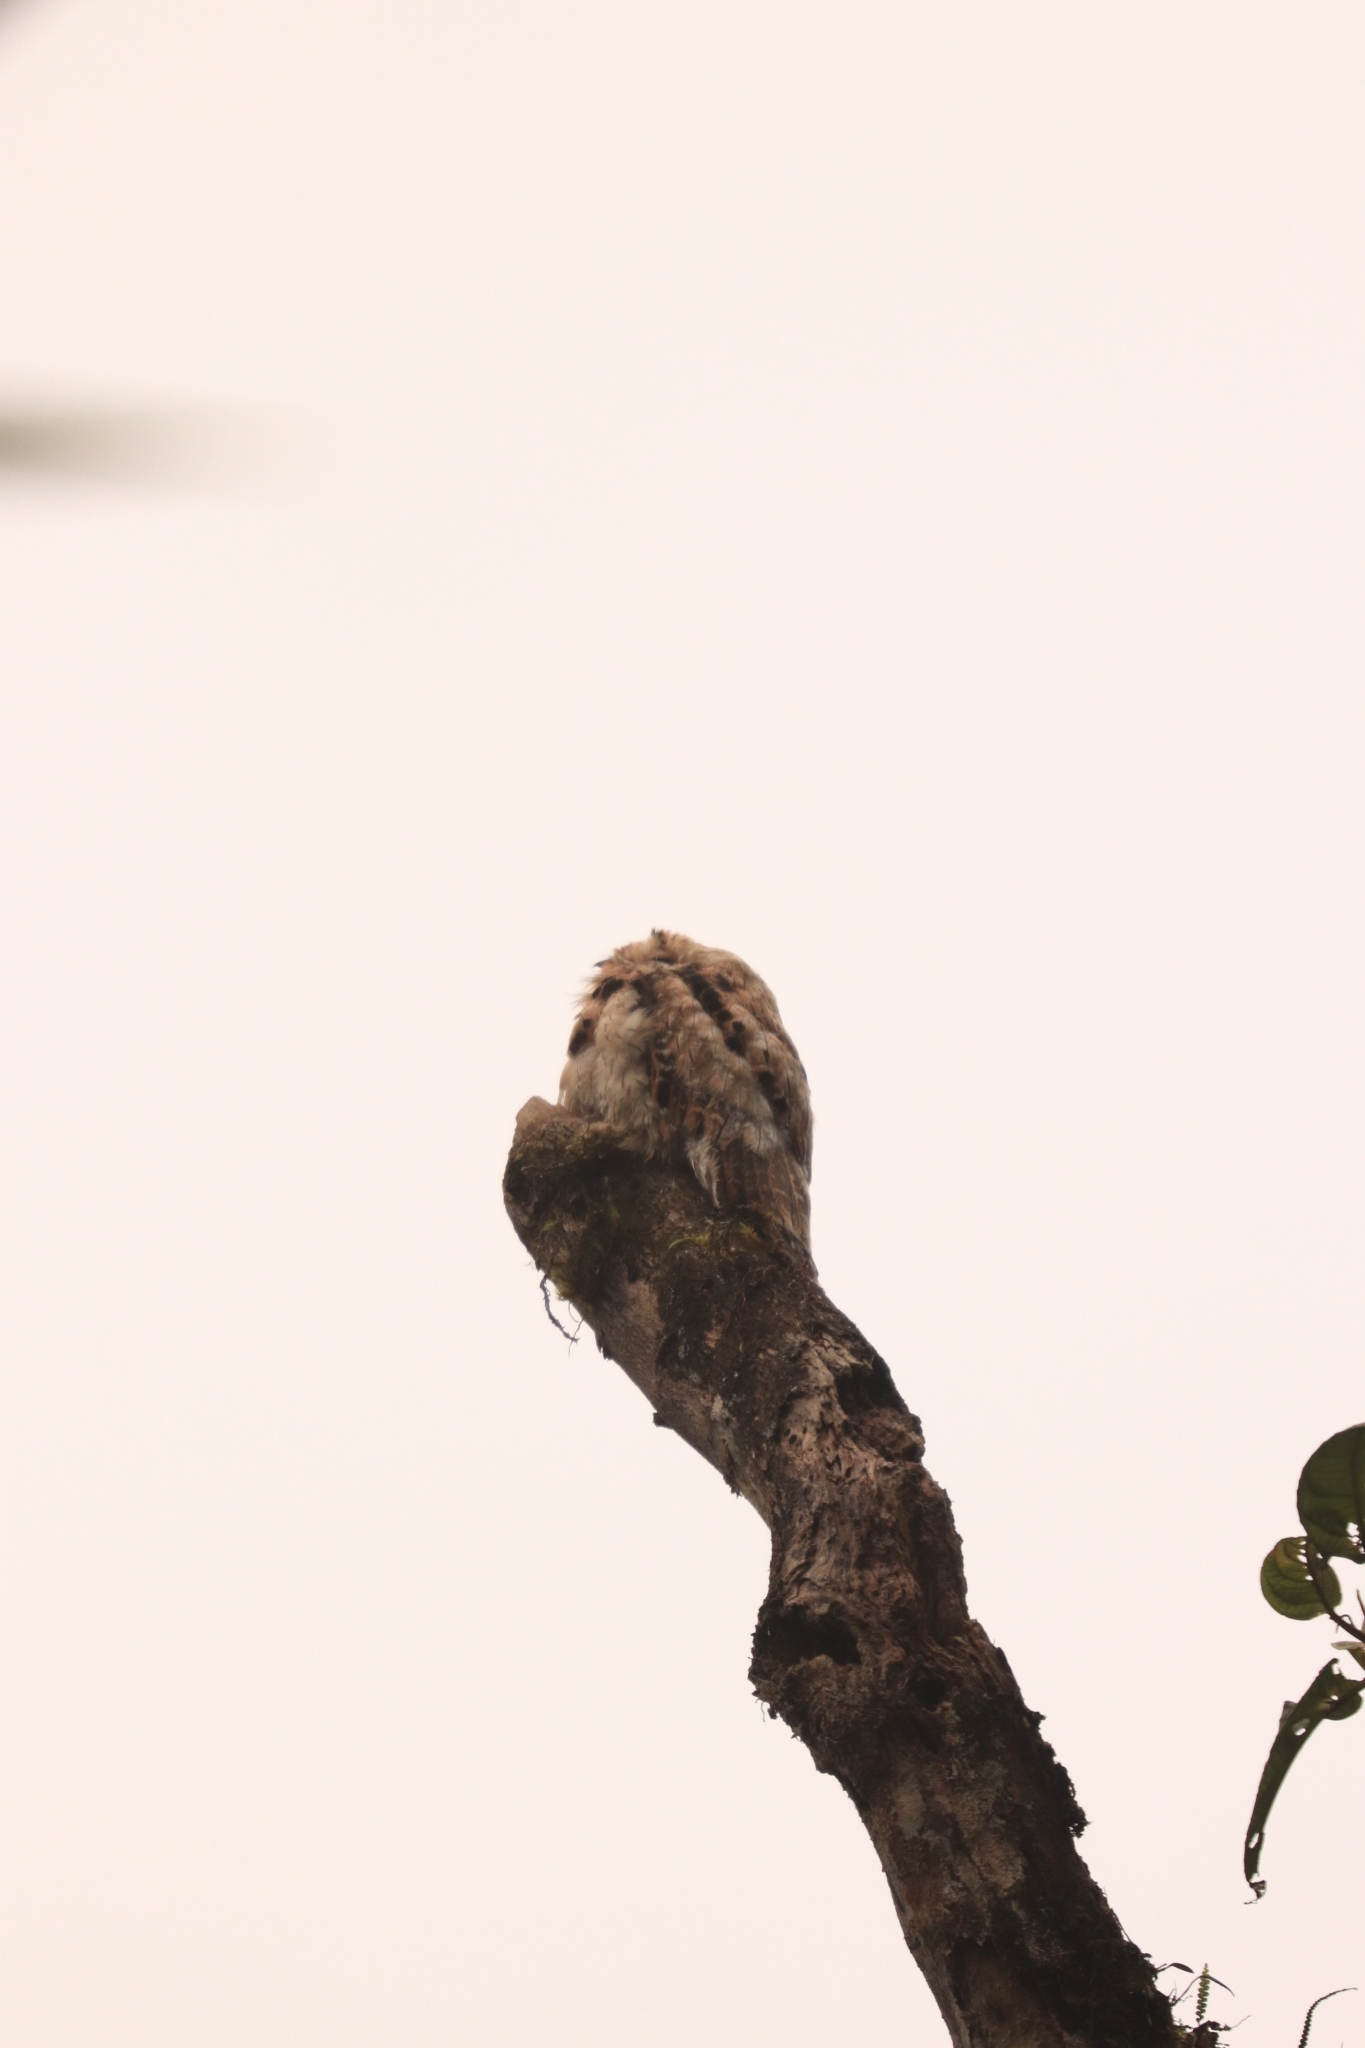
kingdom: Animalia
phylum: Chordata
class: Aves
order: Nyctibiiformes
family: Nyctibiidae
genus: Nyctibius
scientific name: Nyctibius griseus
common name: Common potoo
